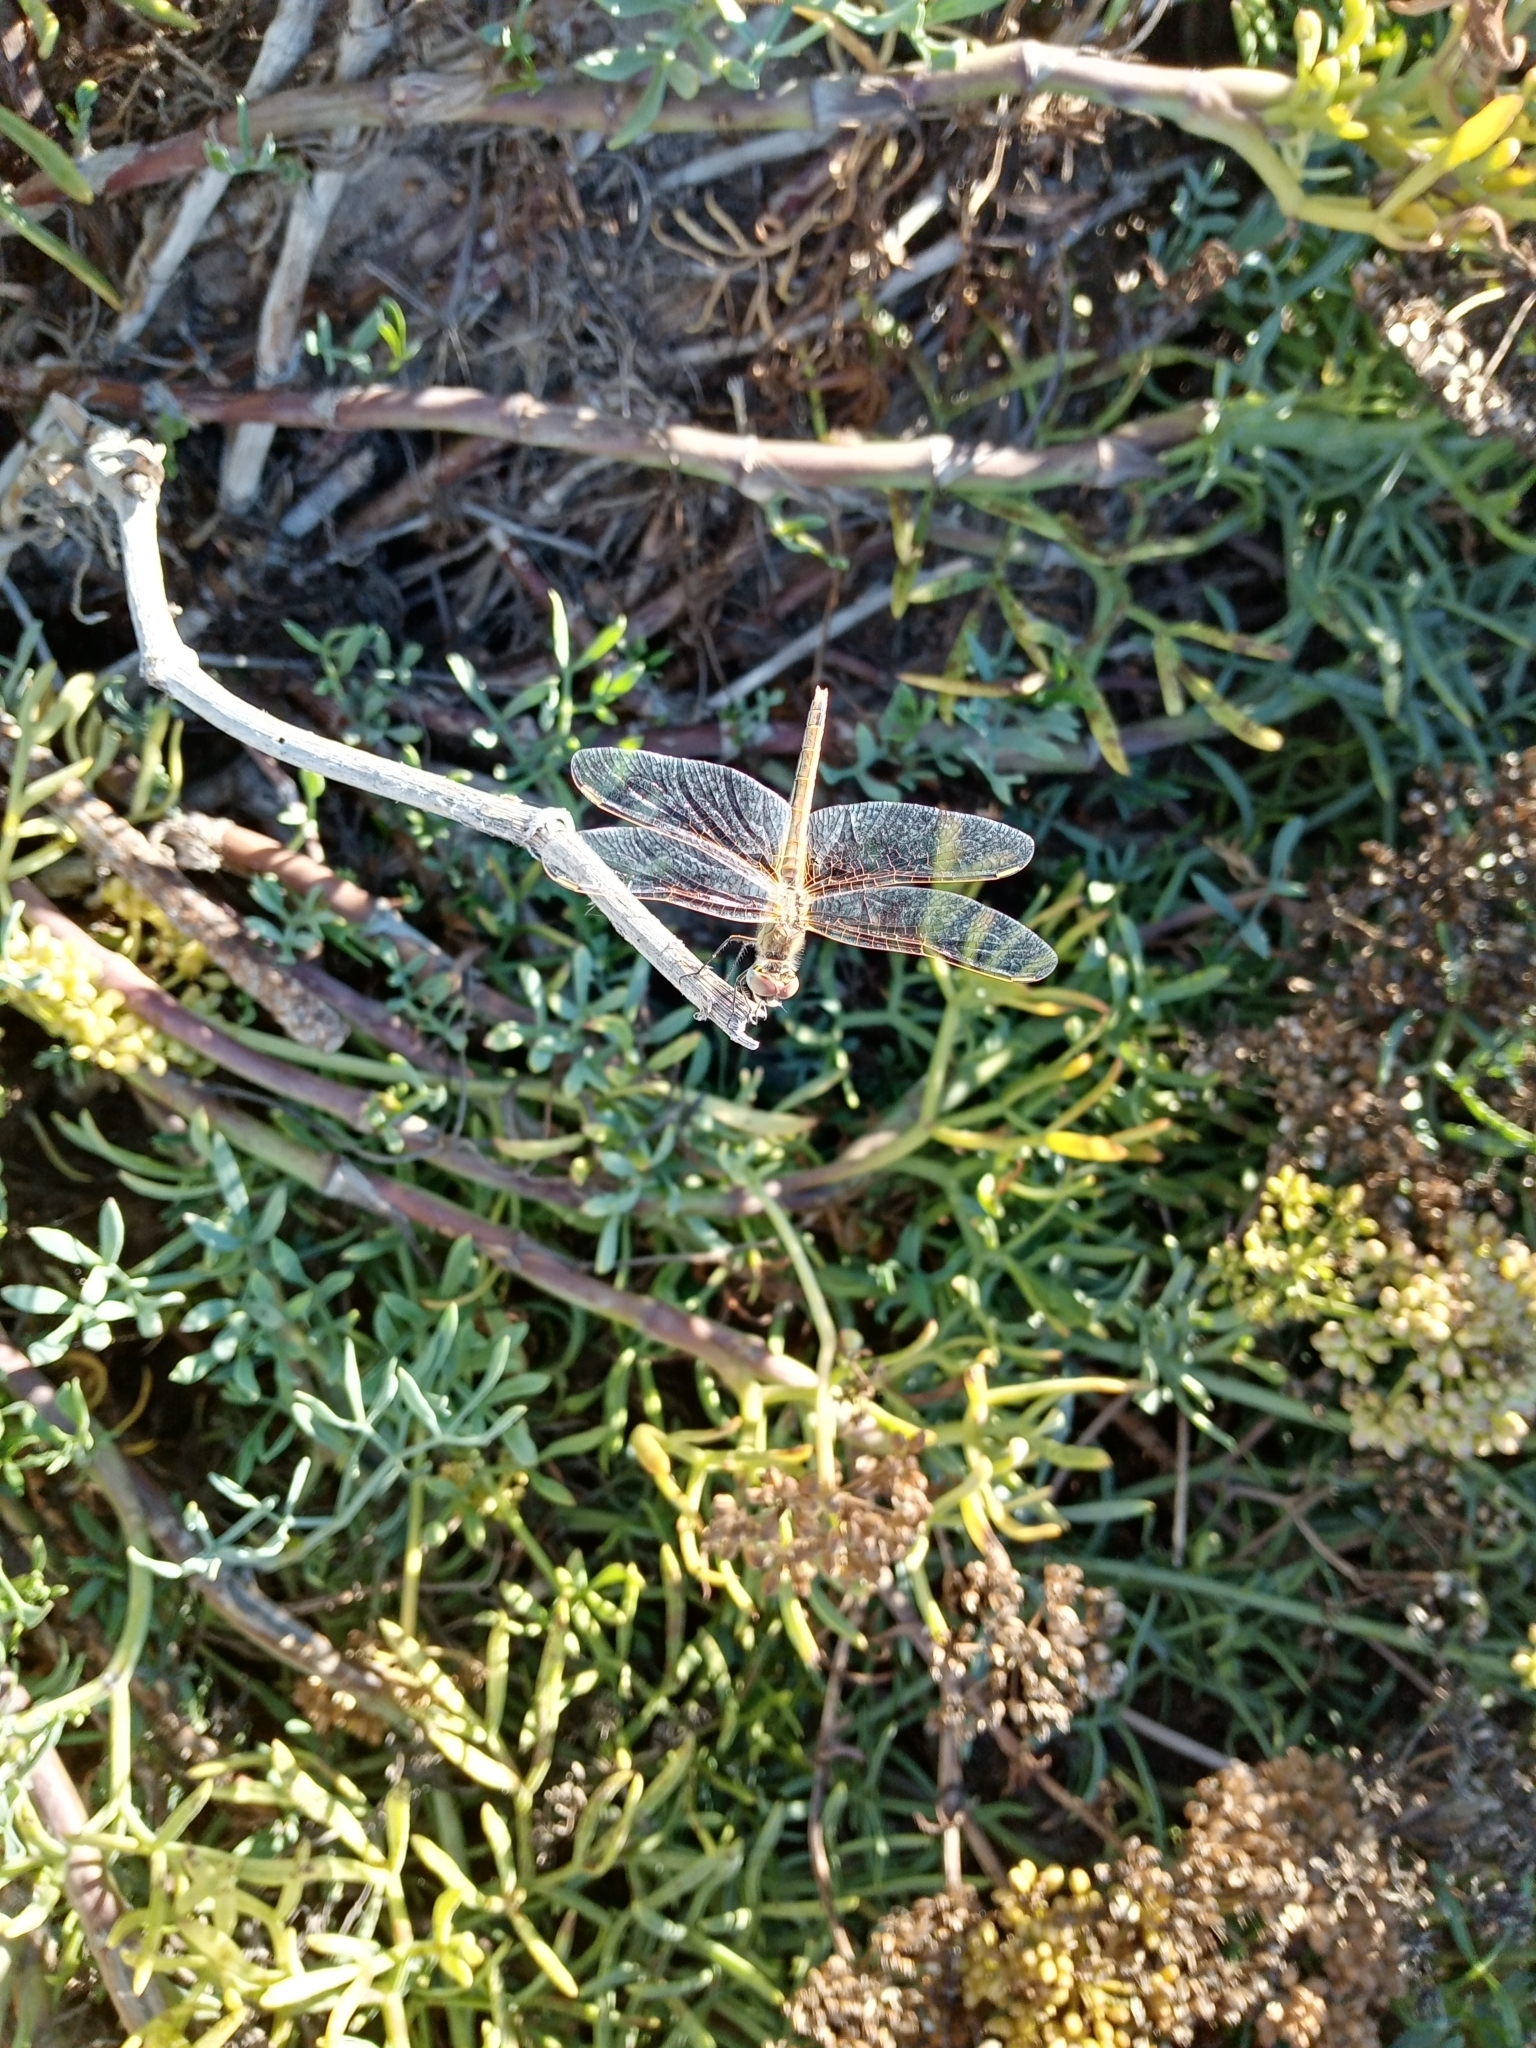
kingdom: Animalia
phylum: Arthropoda
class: Insecta
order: Odonata
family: Libellulidae
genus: Sympetrum
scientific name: Sympetrum fonscolombii
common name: Red-veined darter
